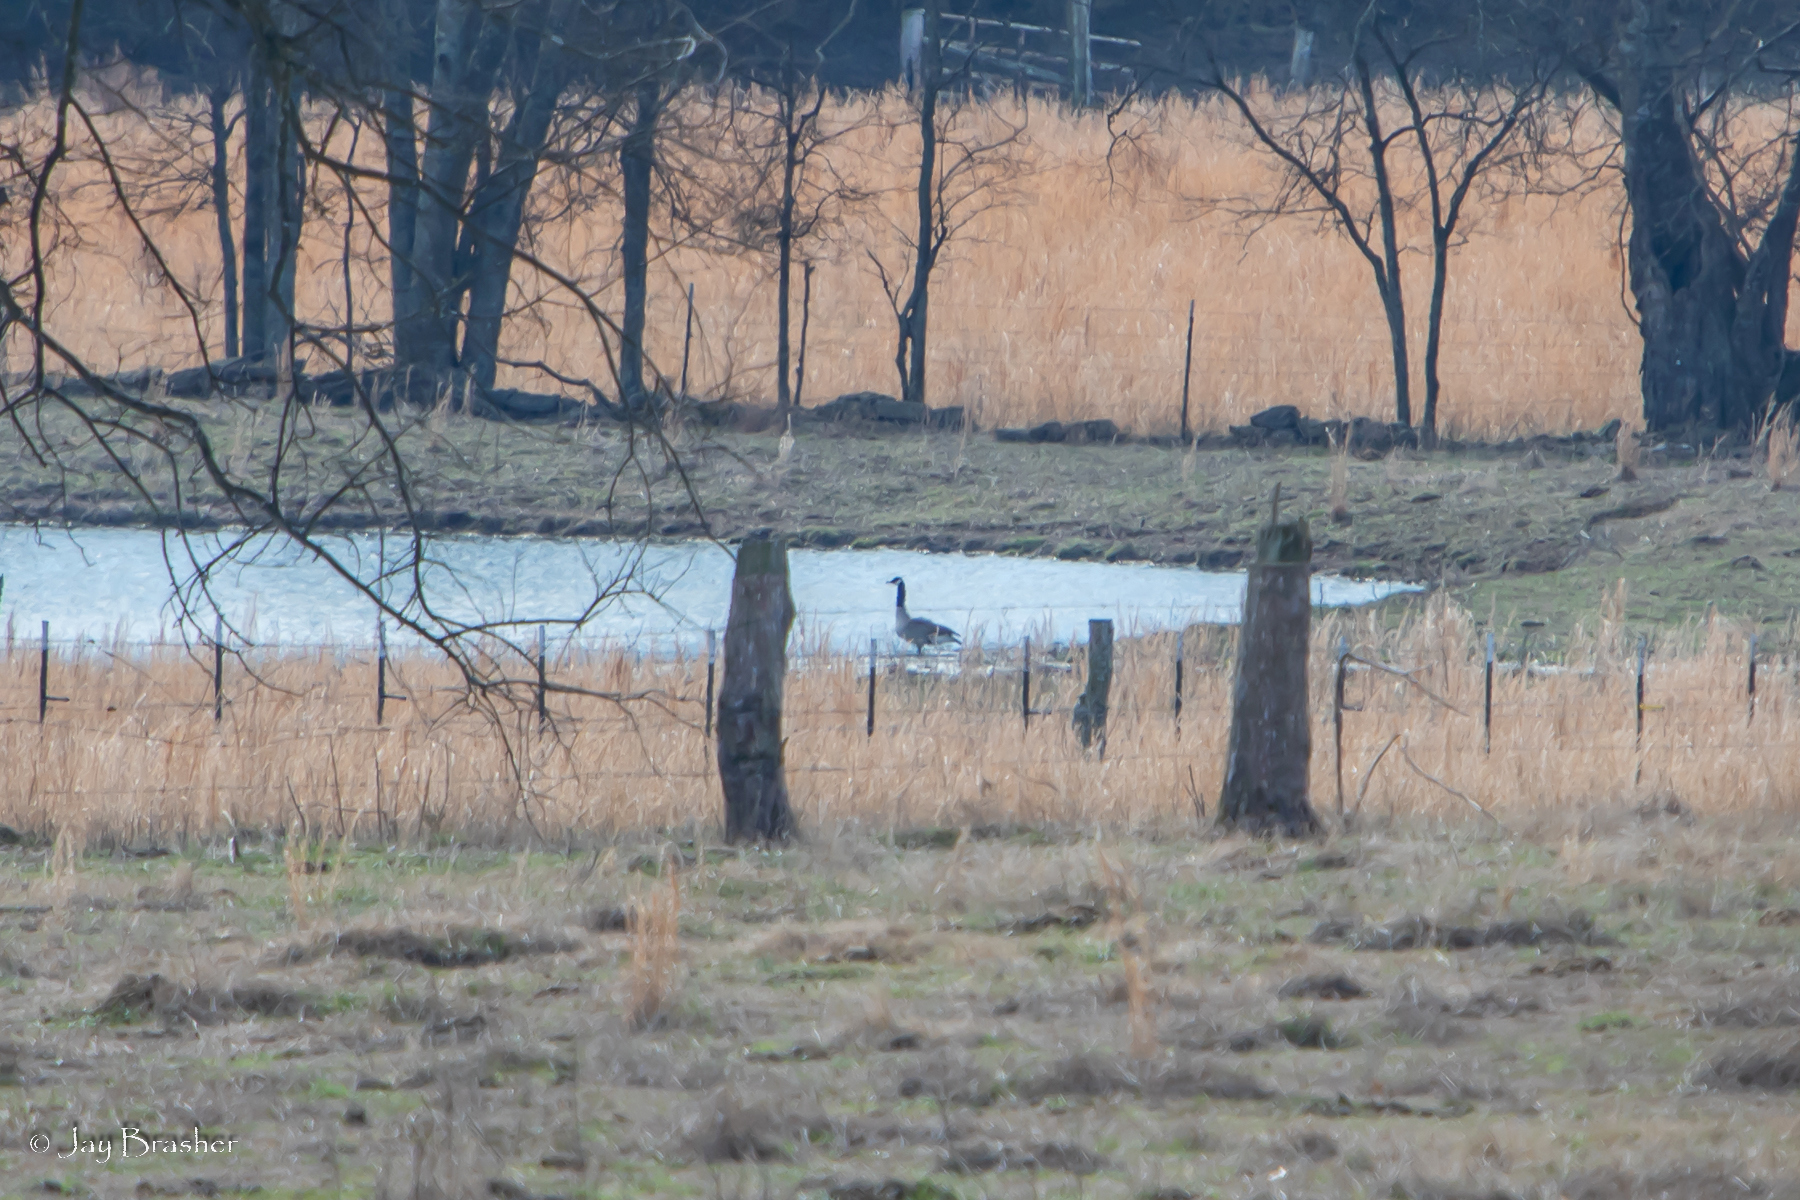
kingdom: Animalia
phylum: Chordata
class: Aves
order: Anseriformes
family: Anatidae
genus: Branta
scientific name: Branta canadensis
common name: Canada goose
